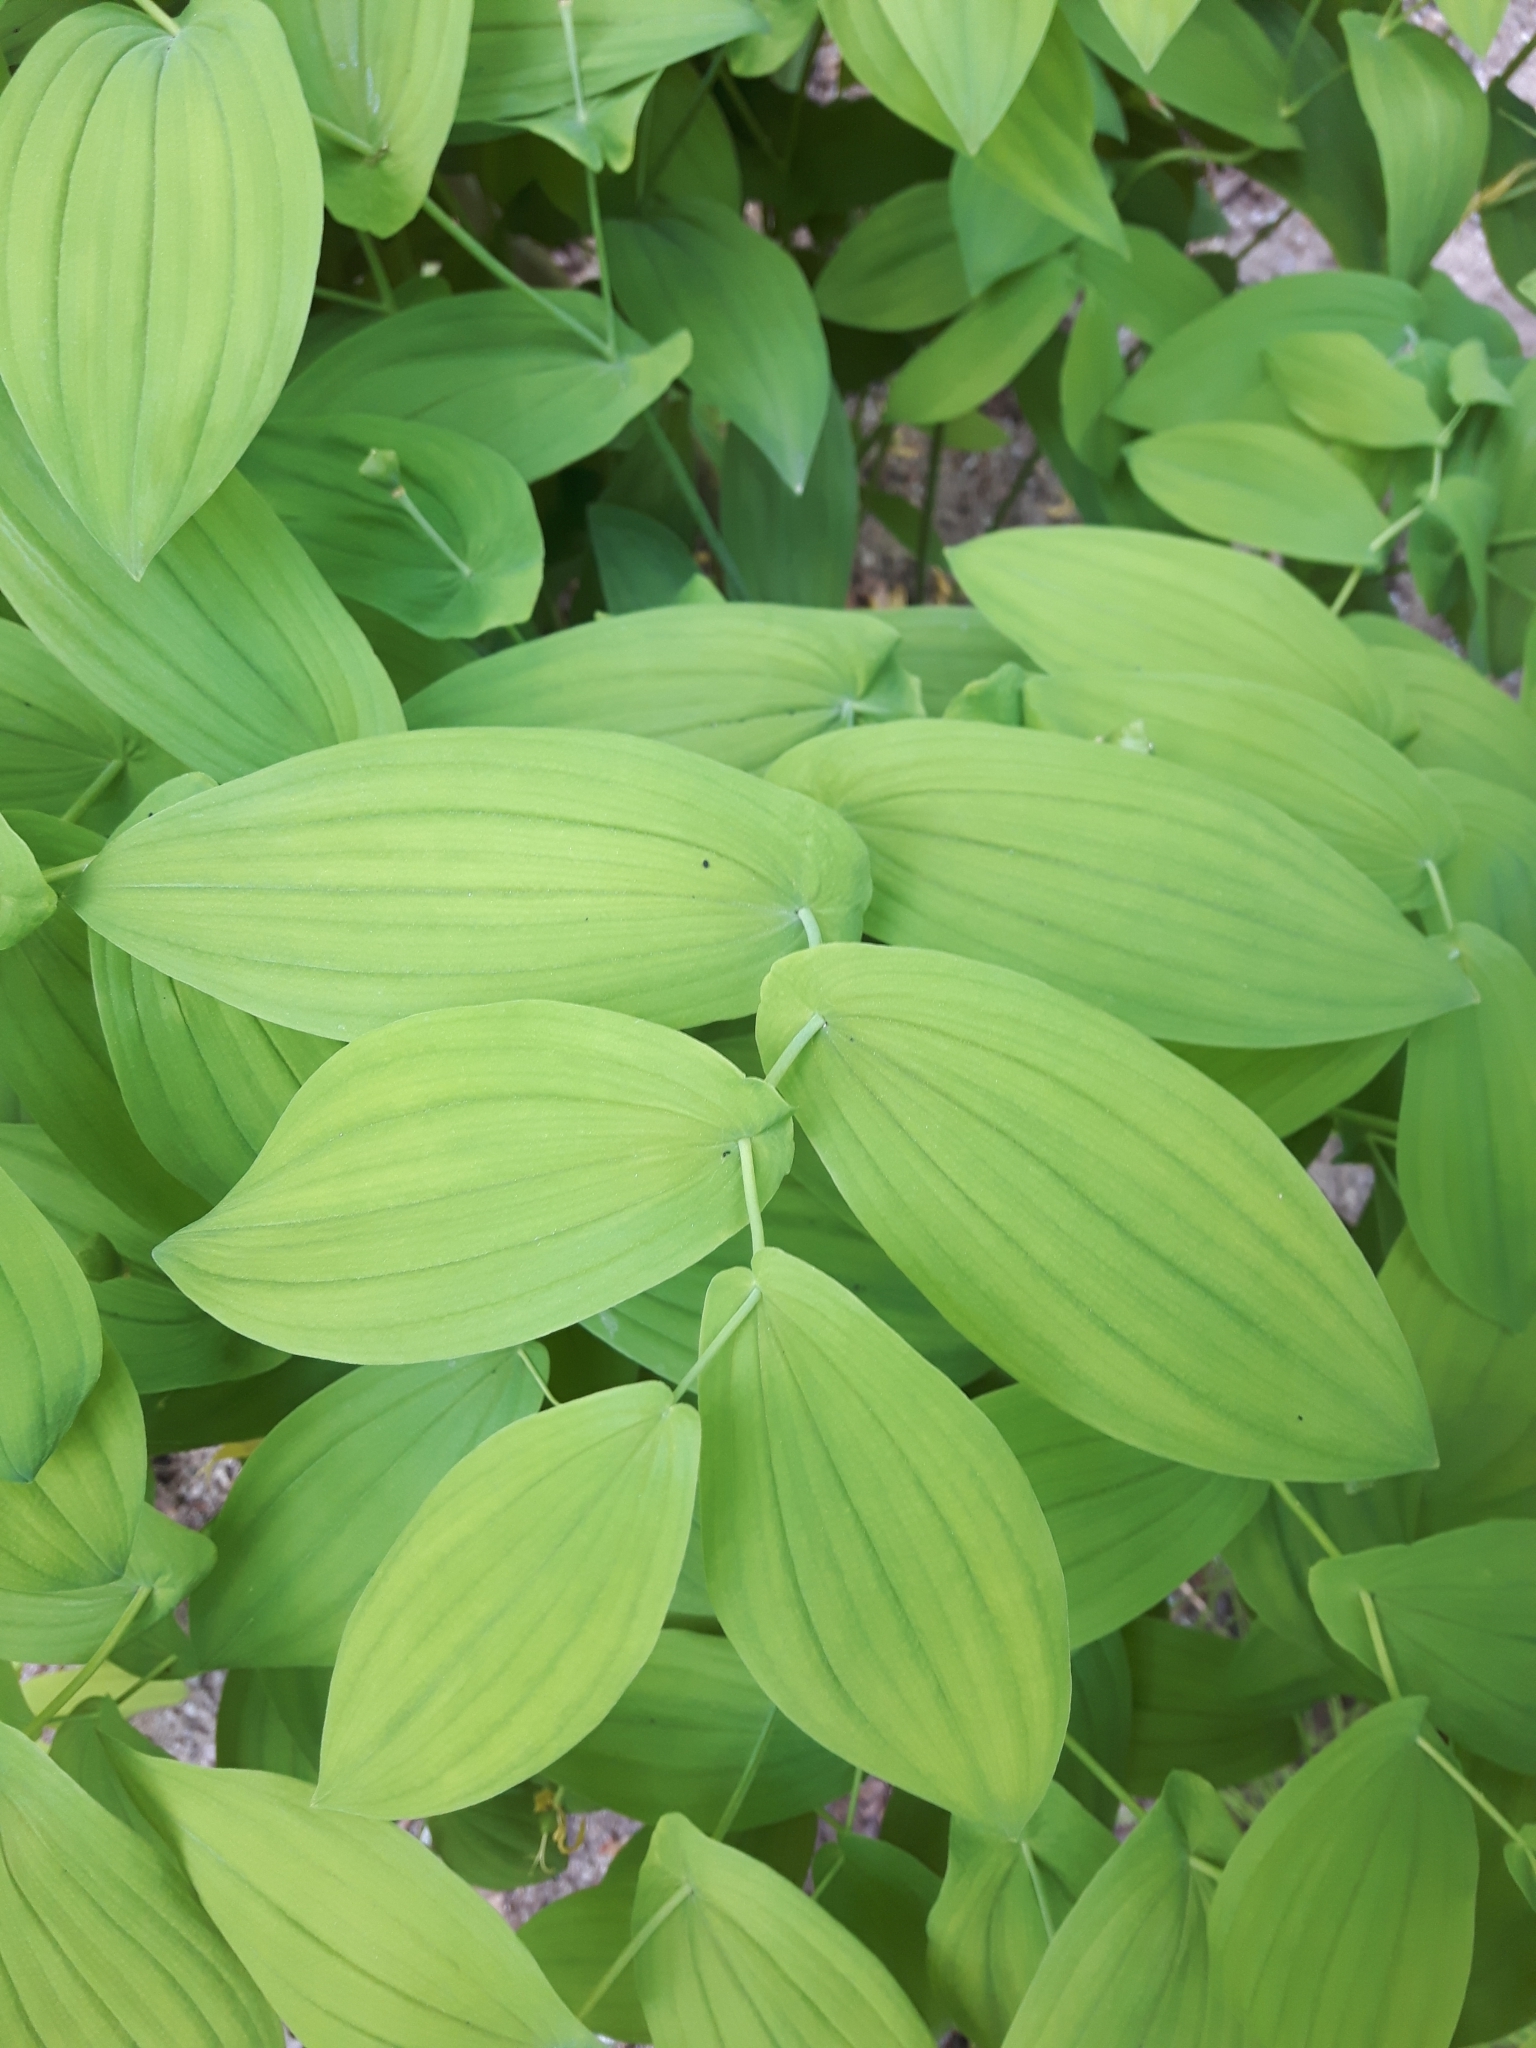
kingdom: Plantae
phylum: Tracheophyta
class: Liliopsida
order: Liliales
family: Colchicaceae
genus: Uvularia
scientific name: Uvularia grandiflora
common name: Bellwort
